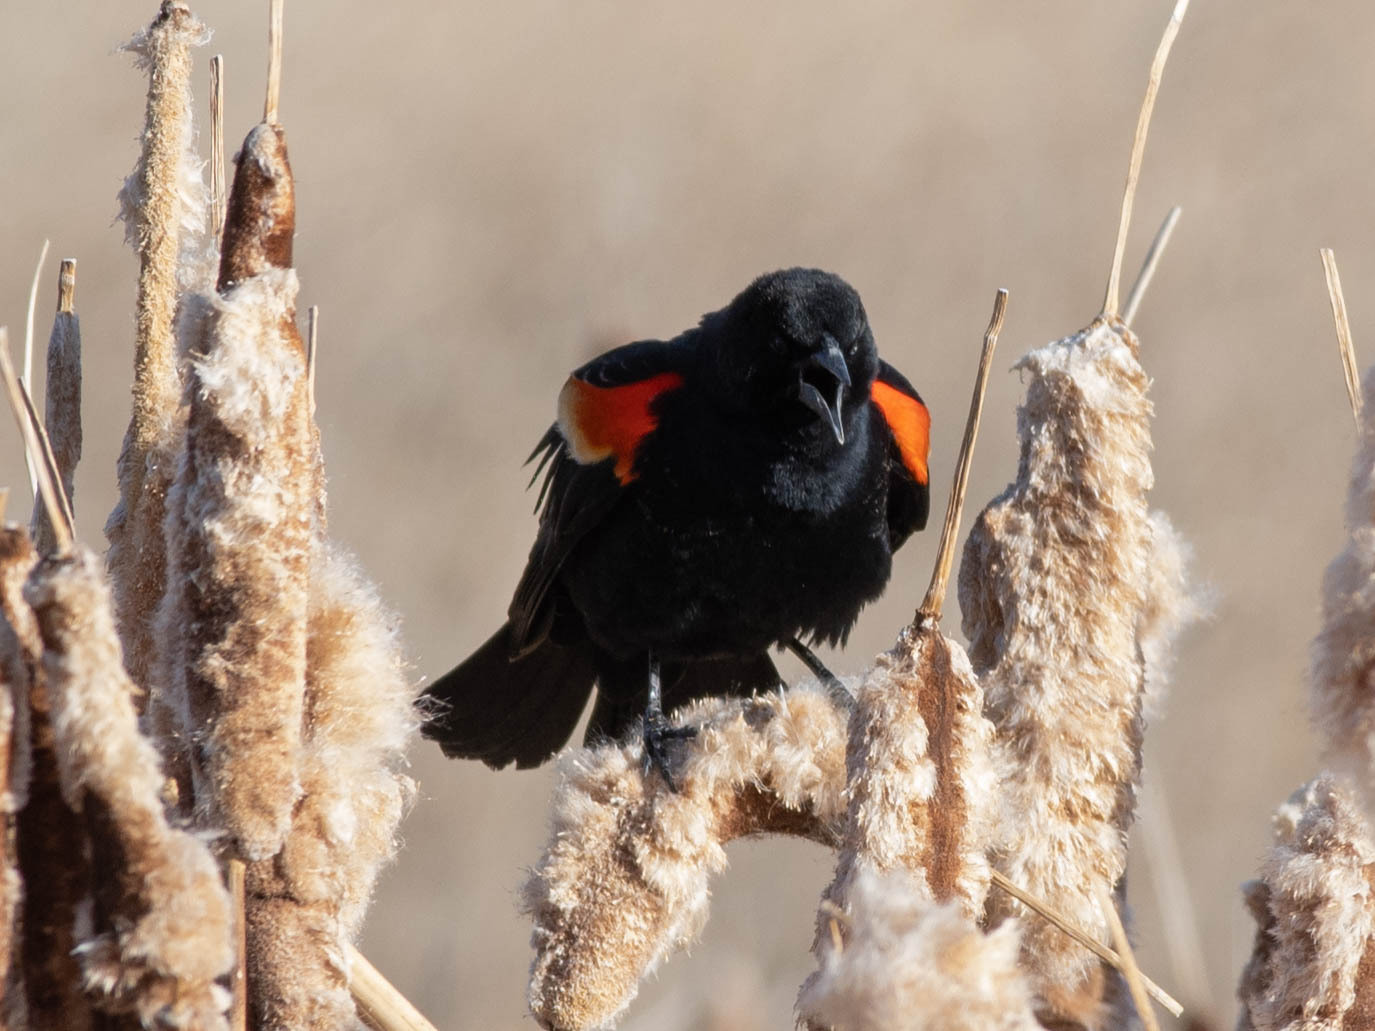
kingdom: Animalia
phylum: Chordata
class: Aves
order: Passeriformes
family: Icteridae
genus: Agelaius
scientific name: Agelaius phoeniceus
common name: Red-winged blackbird
